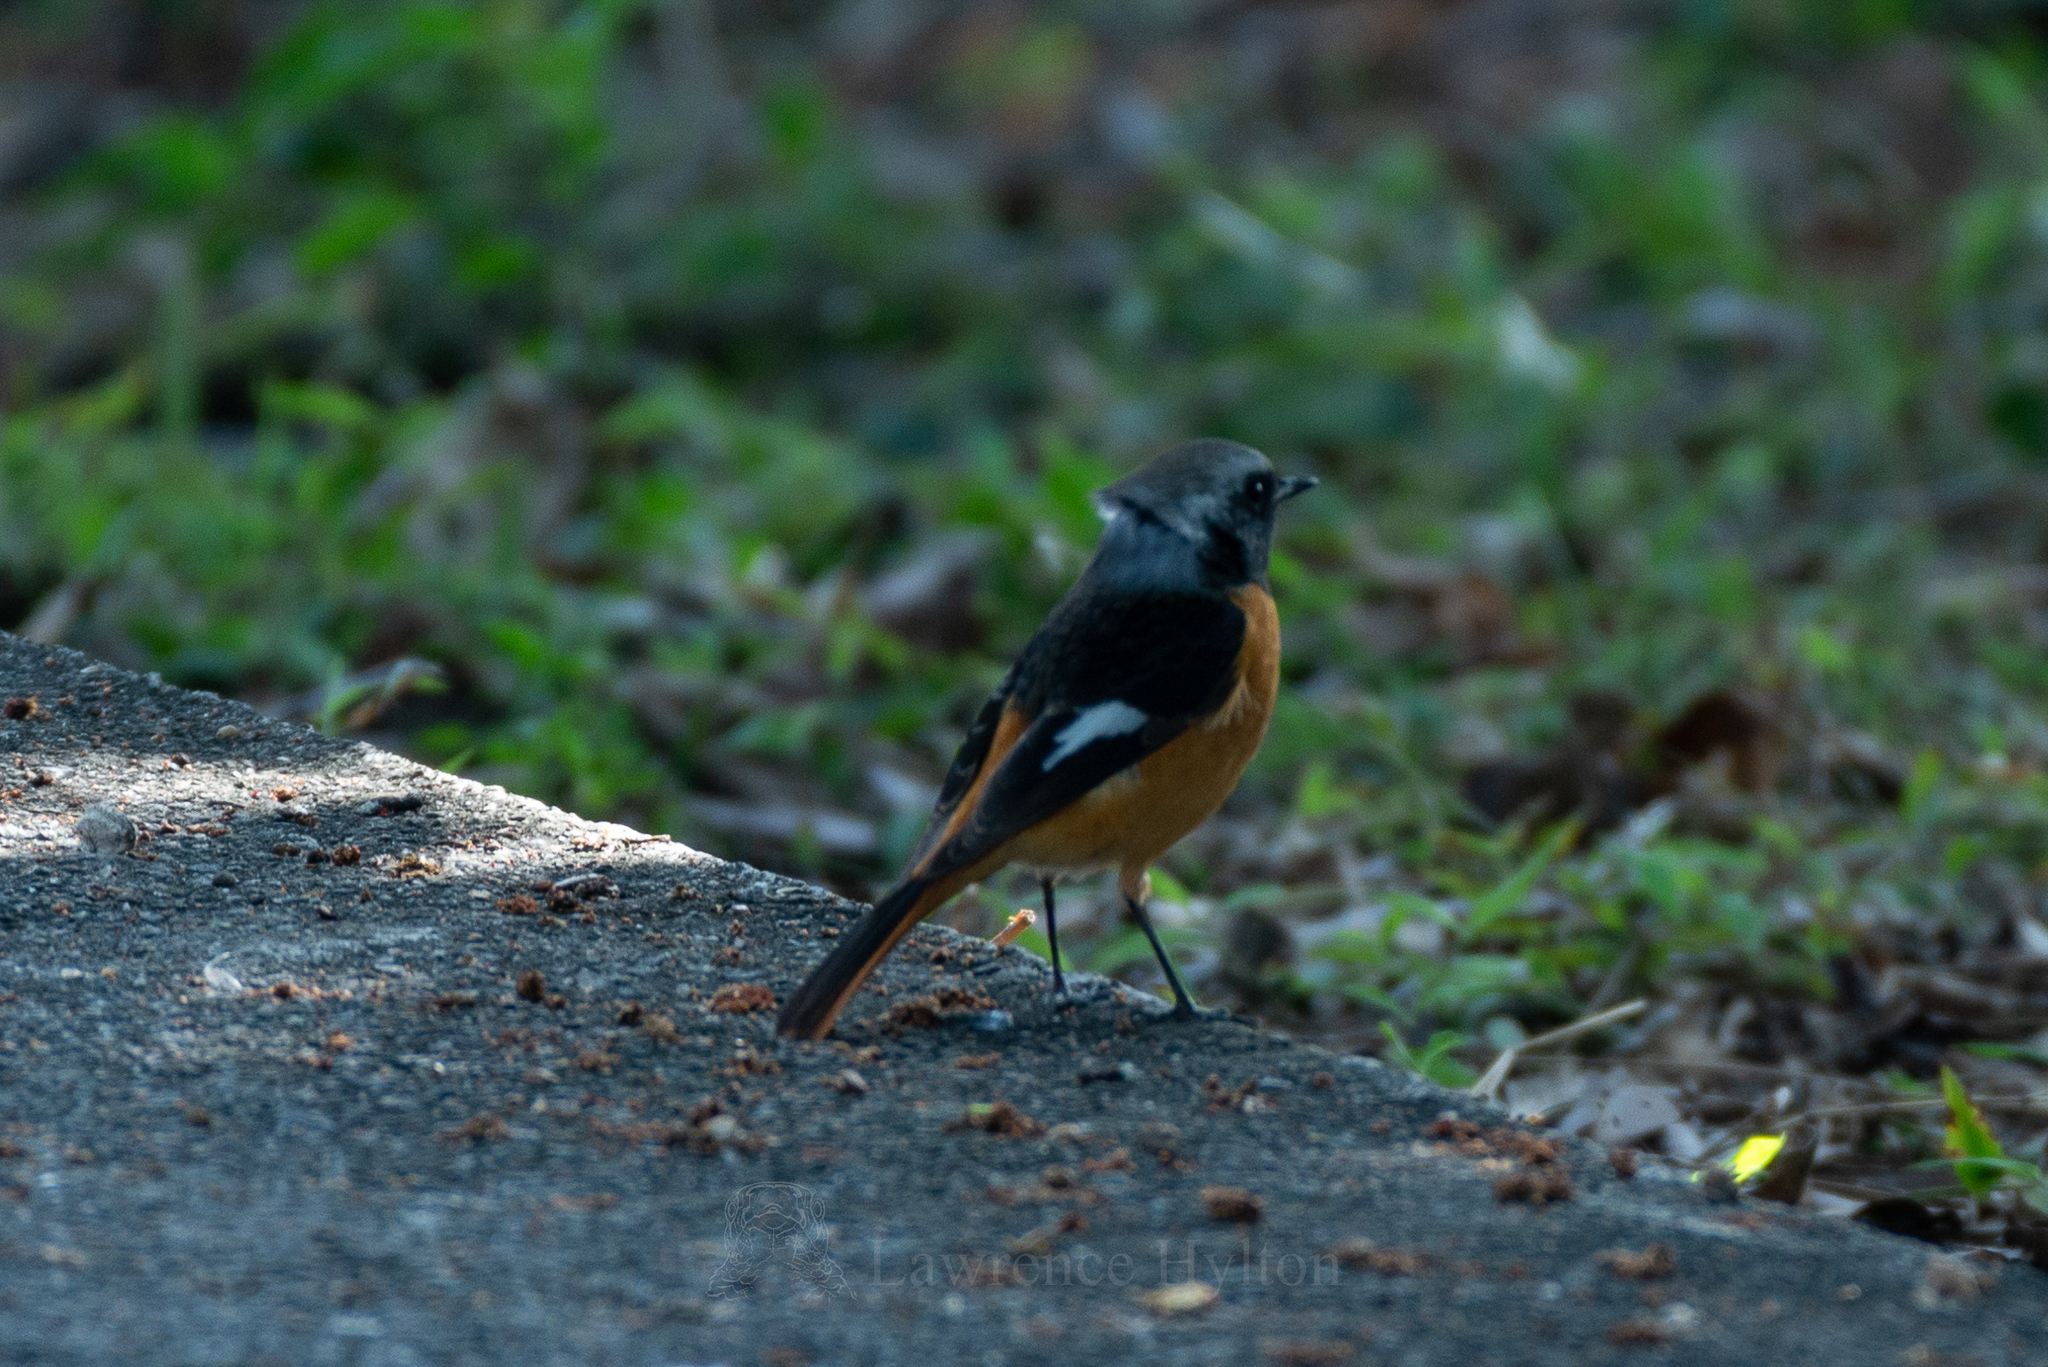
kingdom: Animalia
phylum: Chordata
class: Aves
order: Passeriformes
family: Muscicapidae
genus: Phoenicurus
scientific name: Phoenicurus auroreus
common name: Daurian redstart
